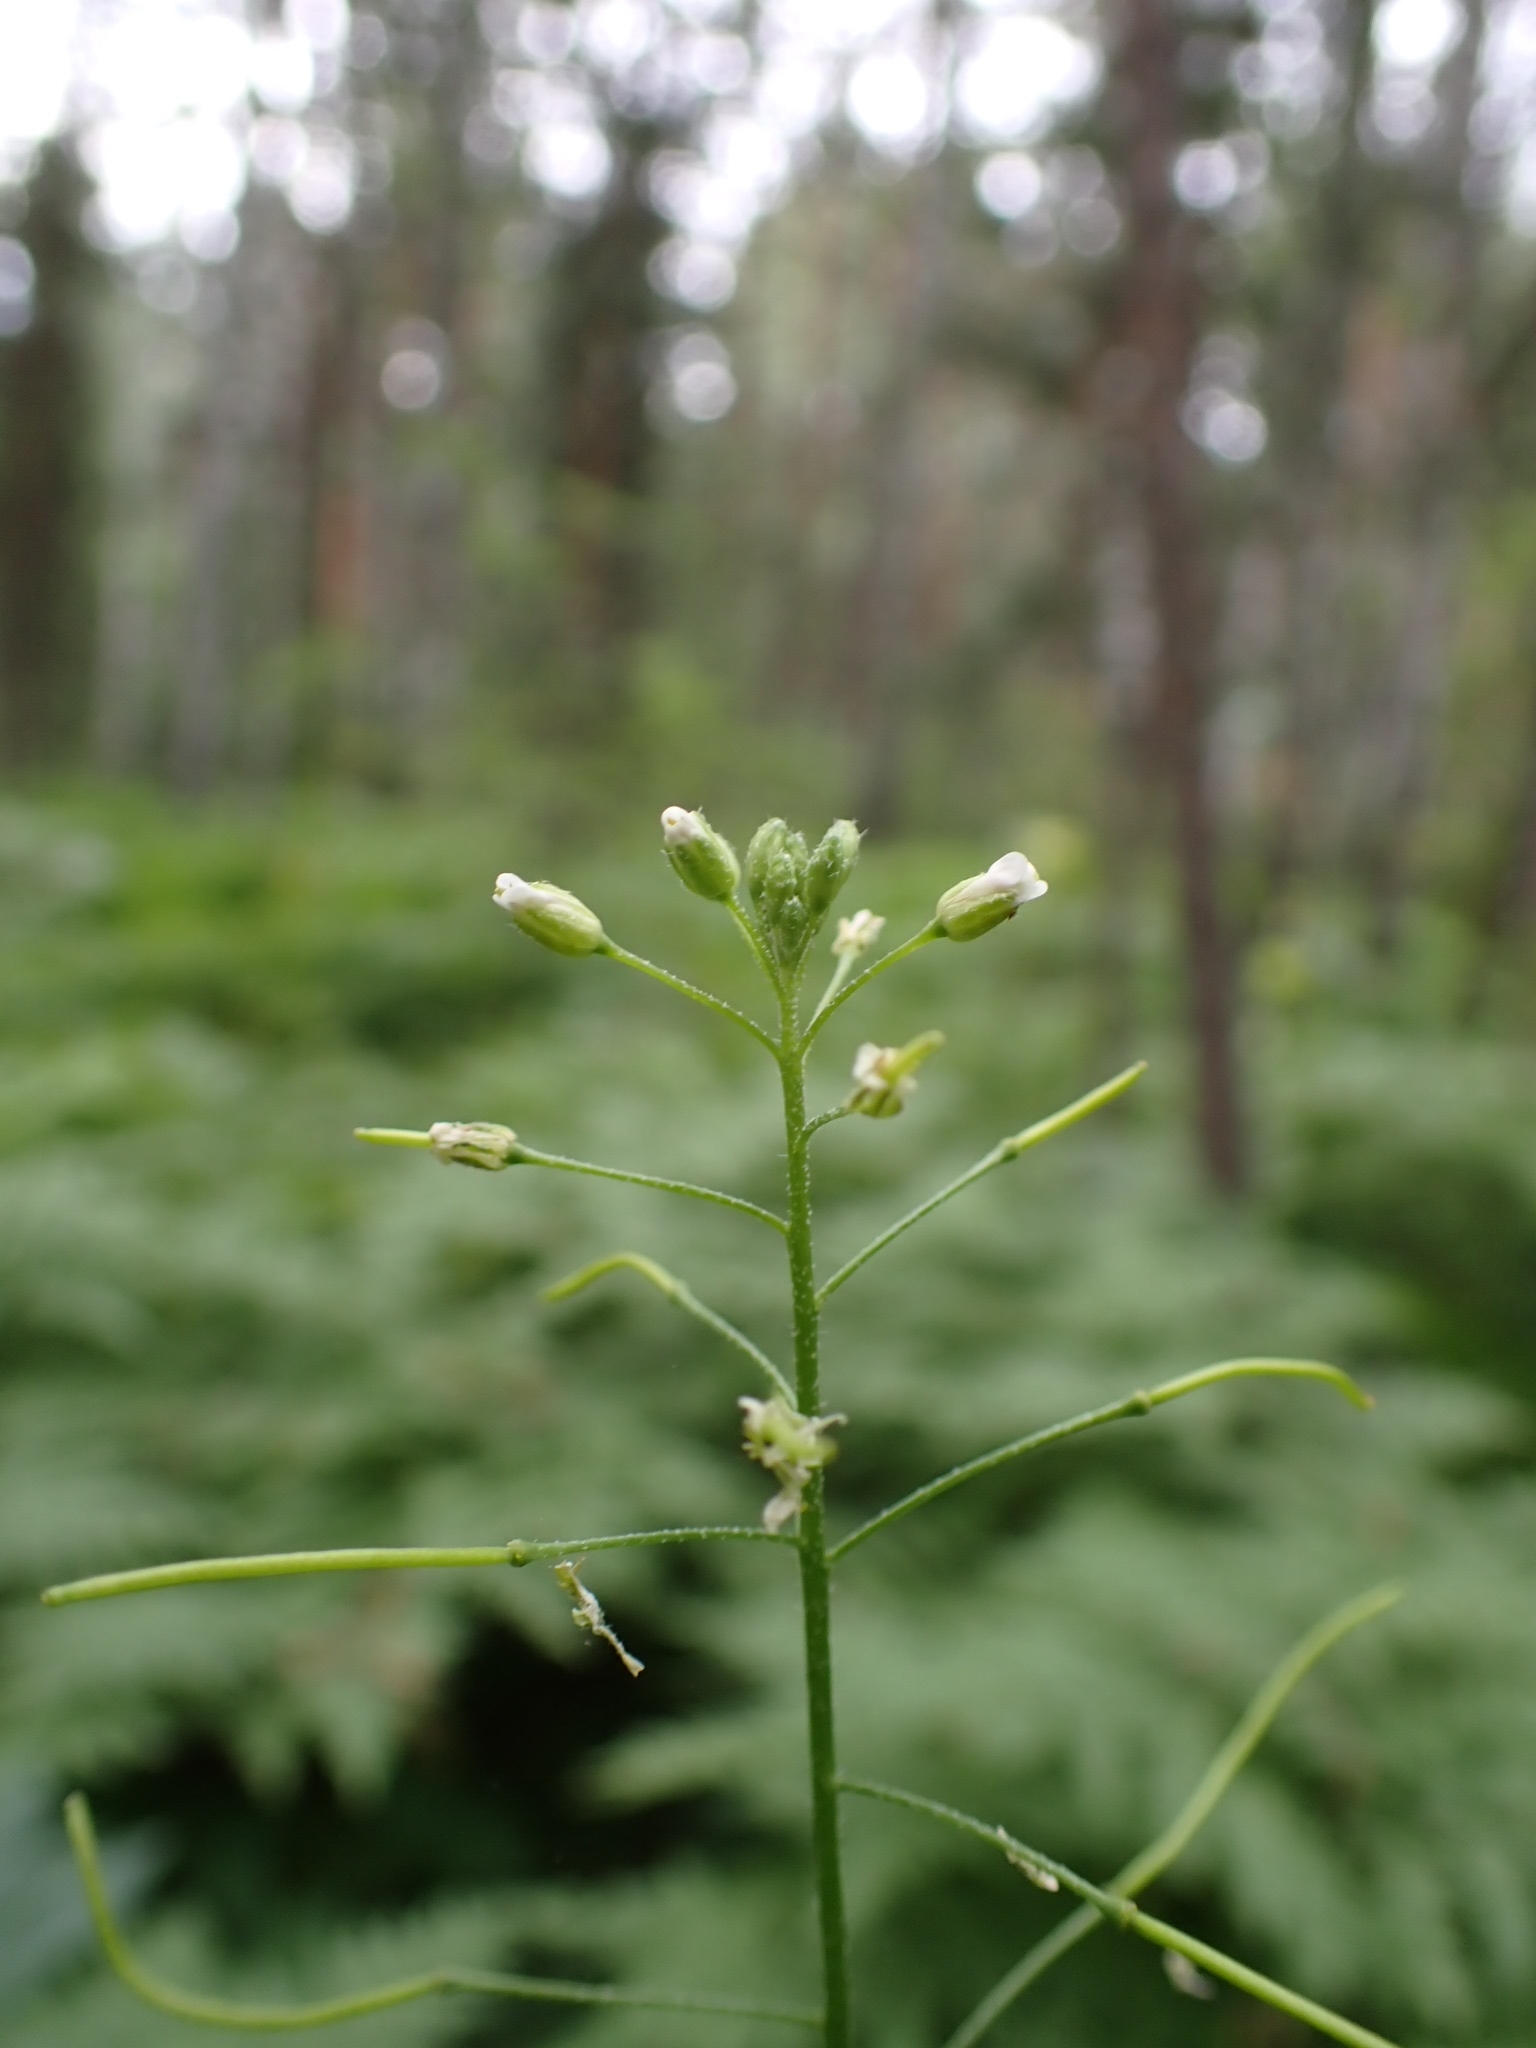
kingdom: Plantae
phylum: Tracheophyta
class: Magnoliopsida
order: Brassicales
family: Brassicaceae
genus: Catolobus
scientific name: Catolobus pendulus
